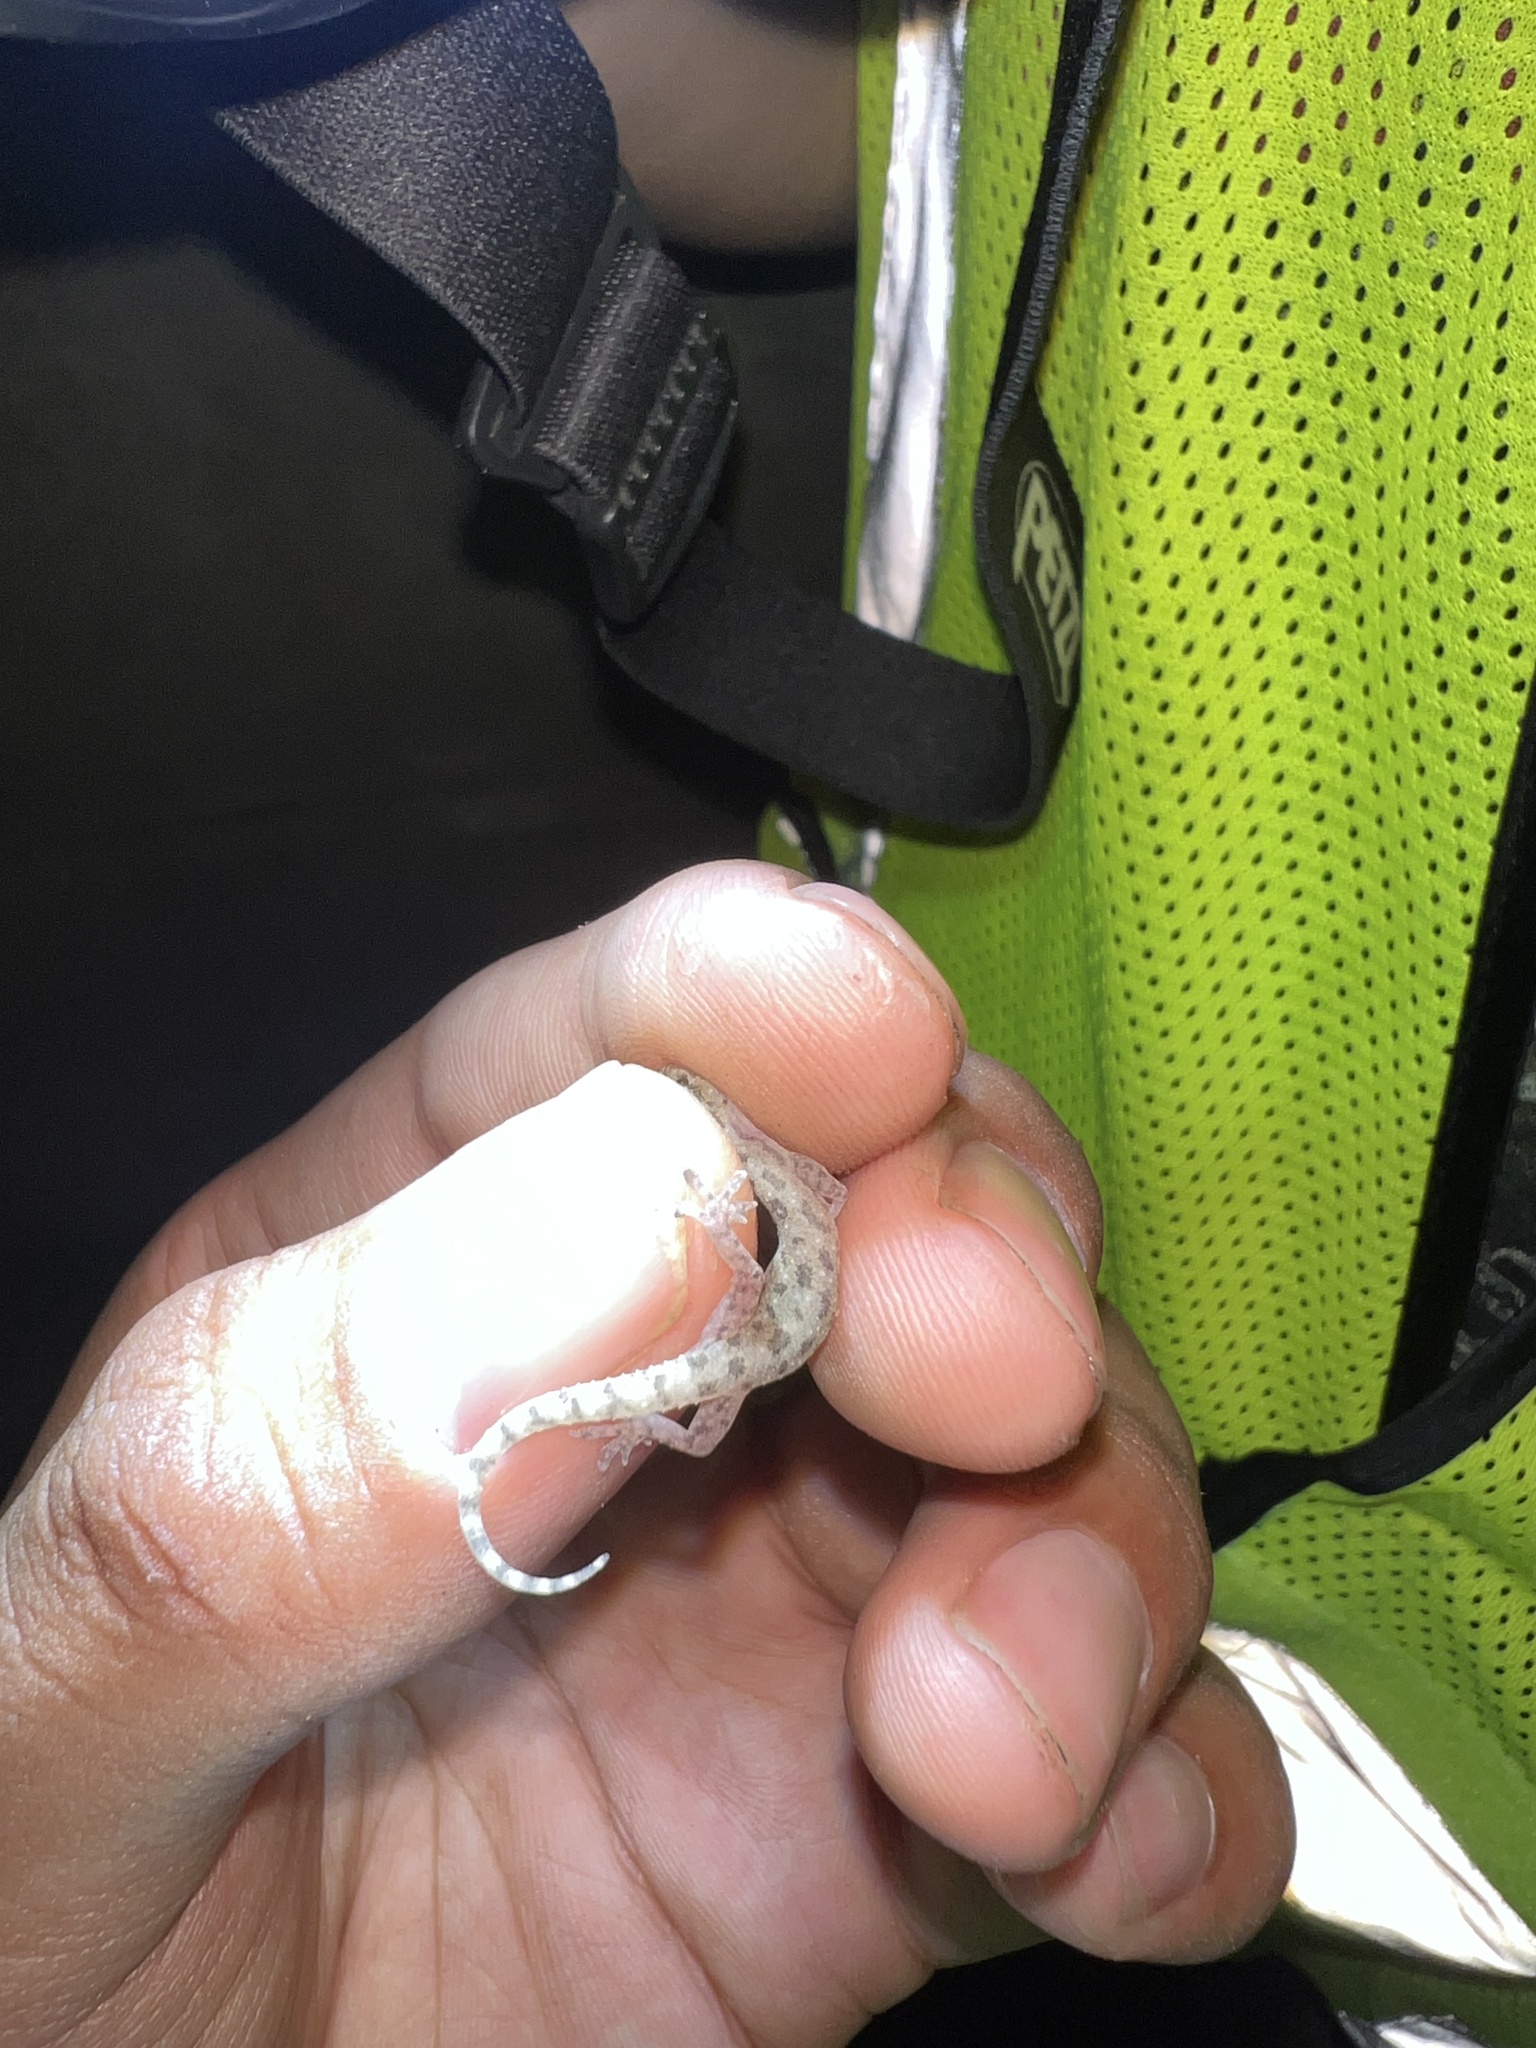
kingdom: Animalia
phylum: Chordata
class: Squamata
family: Gekkonidae
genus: Hemidactylus
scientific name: Hemidactylus parvimaculatus
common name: Spotted house gecko
